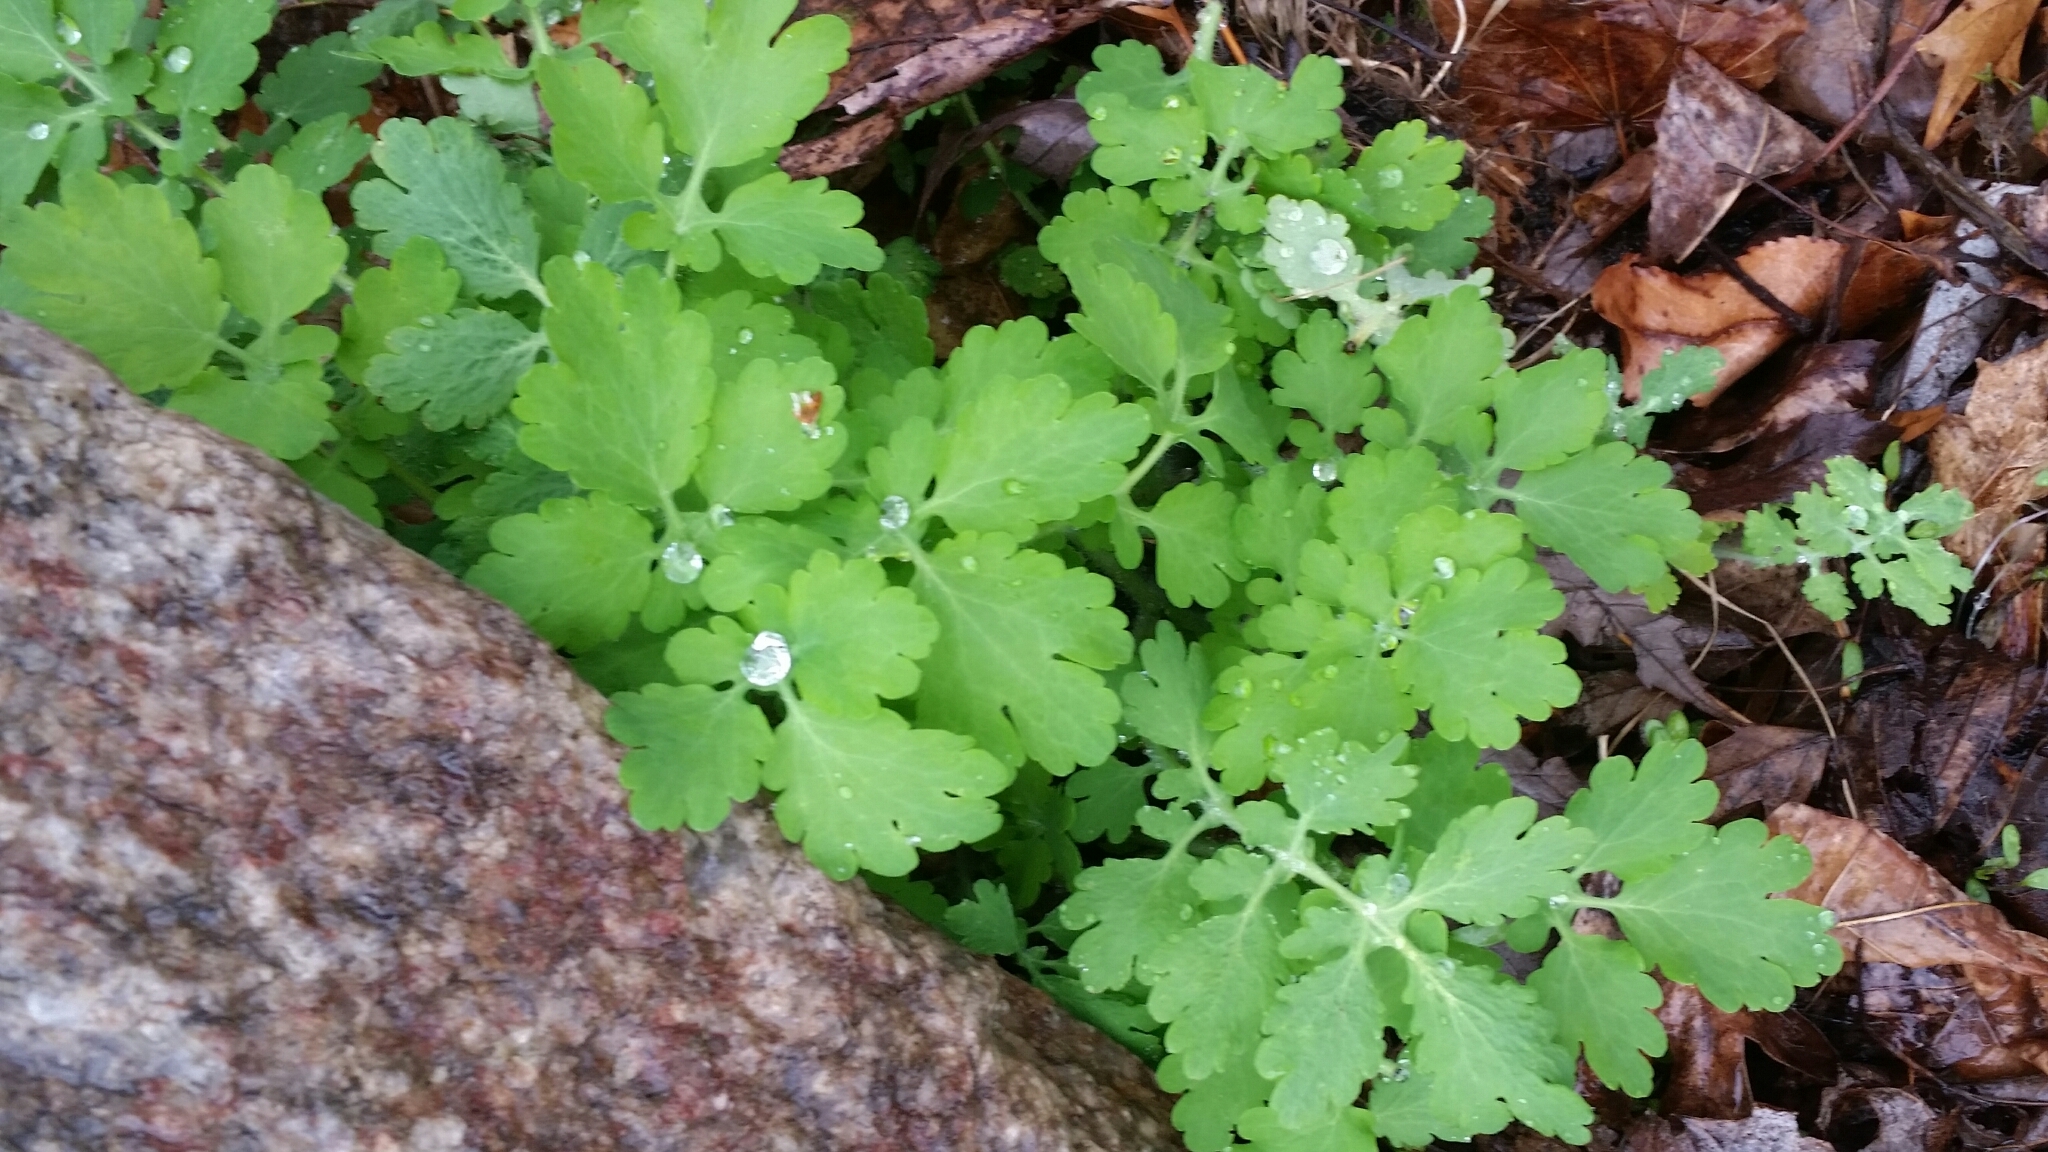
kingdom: Plantae
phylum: Tracheophyta
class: Magnoliopsida
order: Ranunculales
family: Papaveraceae
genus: Chelidonium
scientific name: Chelidonium majus
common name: Greater celandine
